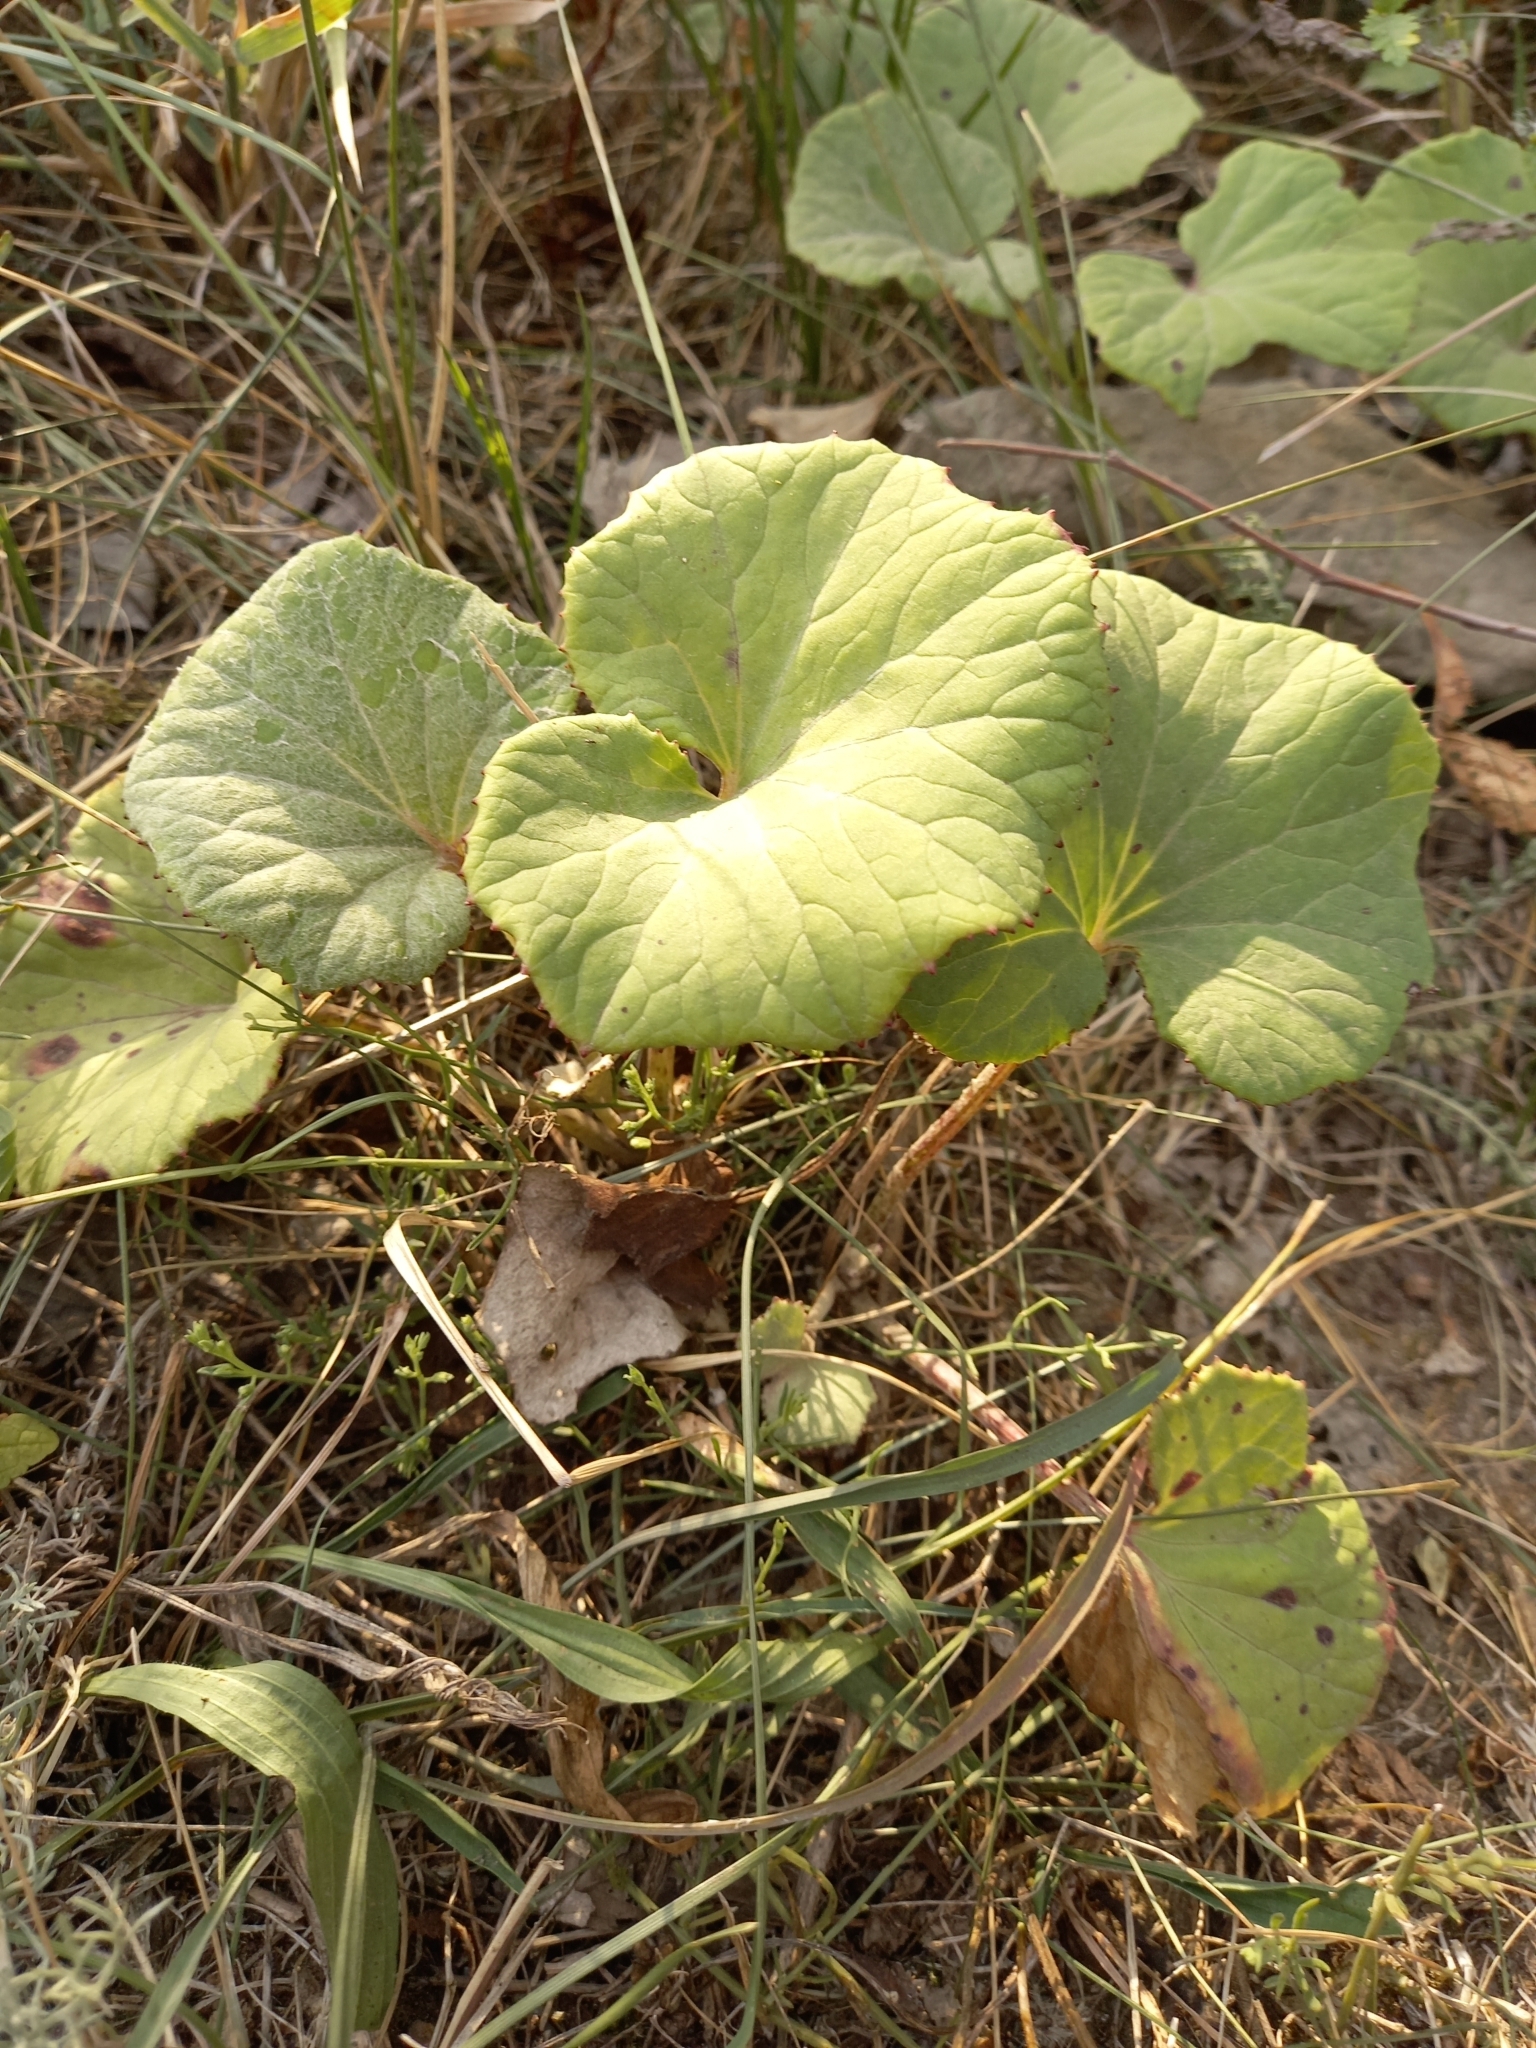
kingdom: Plantae
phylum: Tracheophyta
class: Magnoliopsida
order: Asterales
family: Asteraceae
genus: Tussilago
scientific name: Tussilago farfara
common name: Coltsfoot
